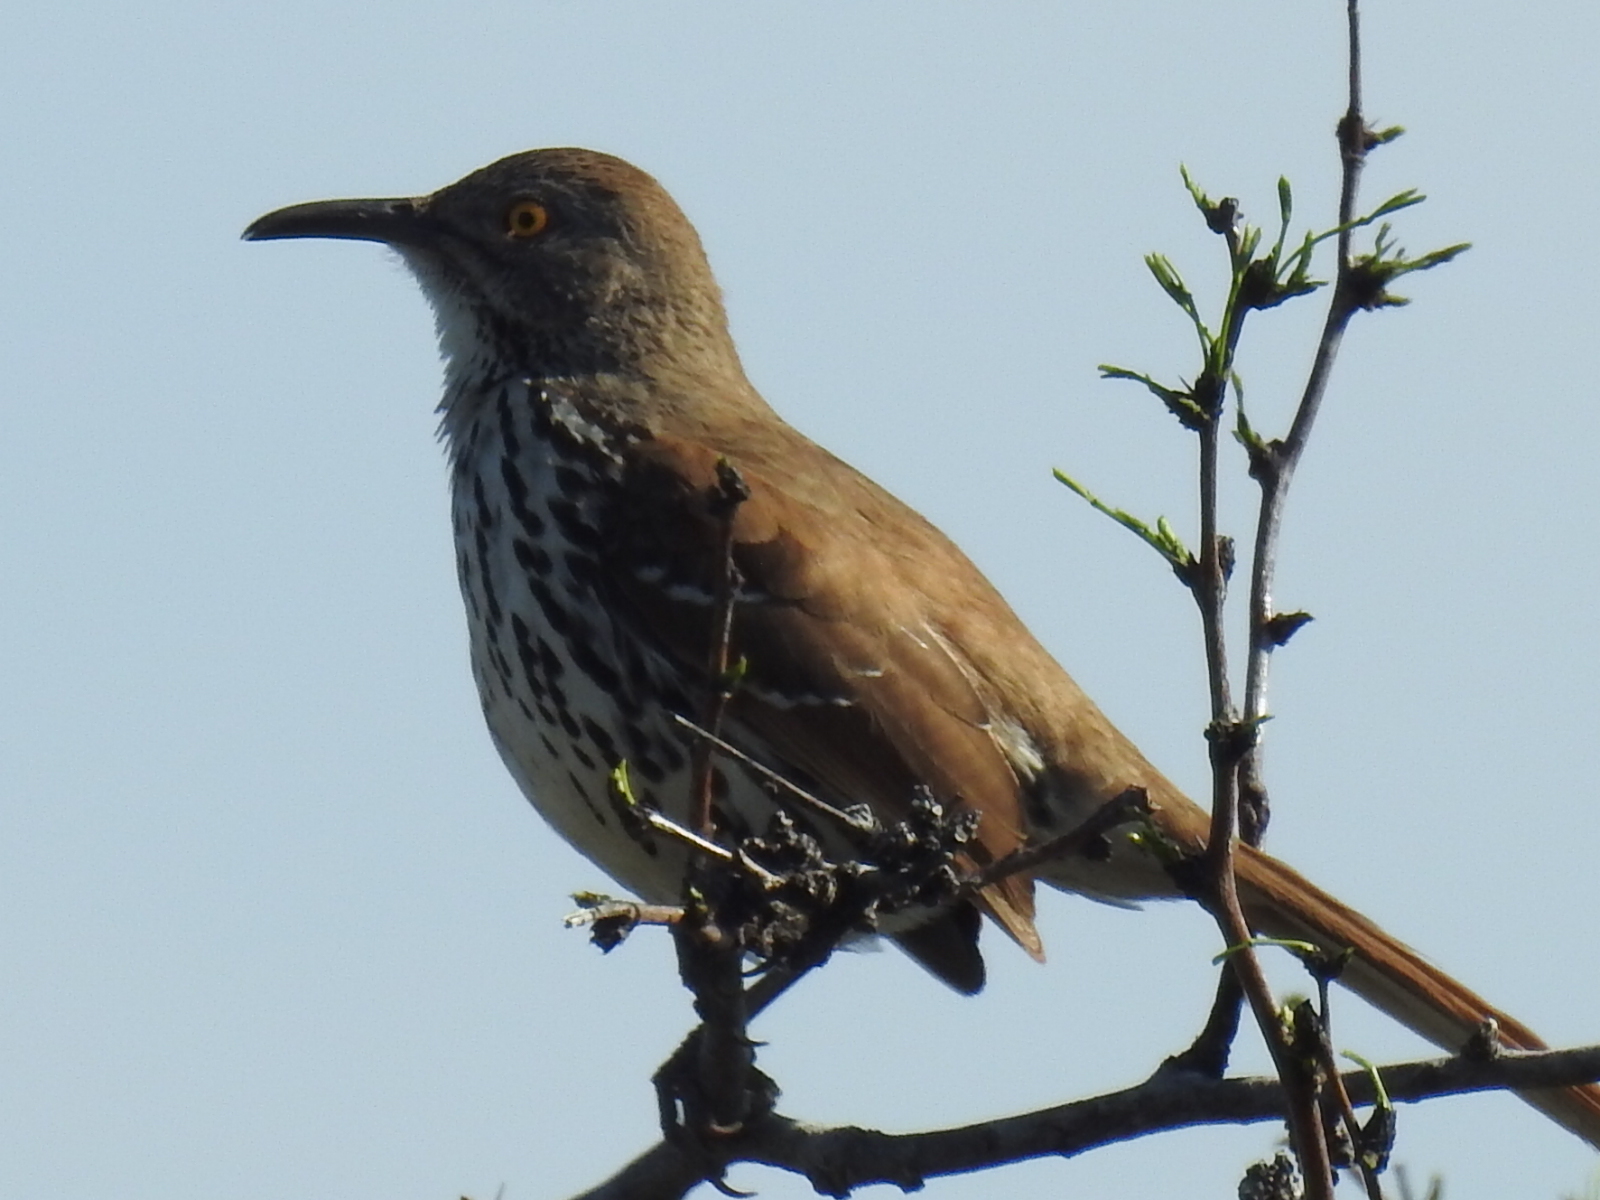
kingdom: Animalia
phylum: Chordata
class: Aves
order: Passeriformes
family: Mimidae
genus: Toxostoma
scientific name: Toxostoma longirostre
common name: Long-billed thrasher
